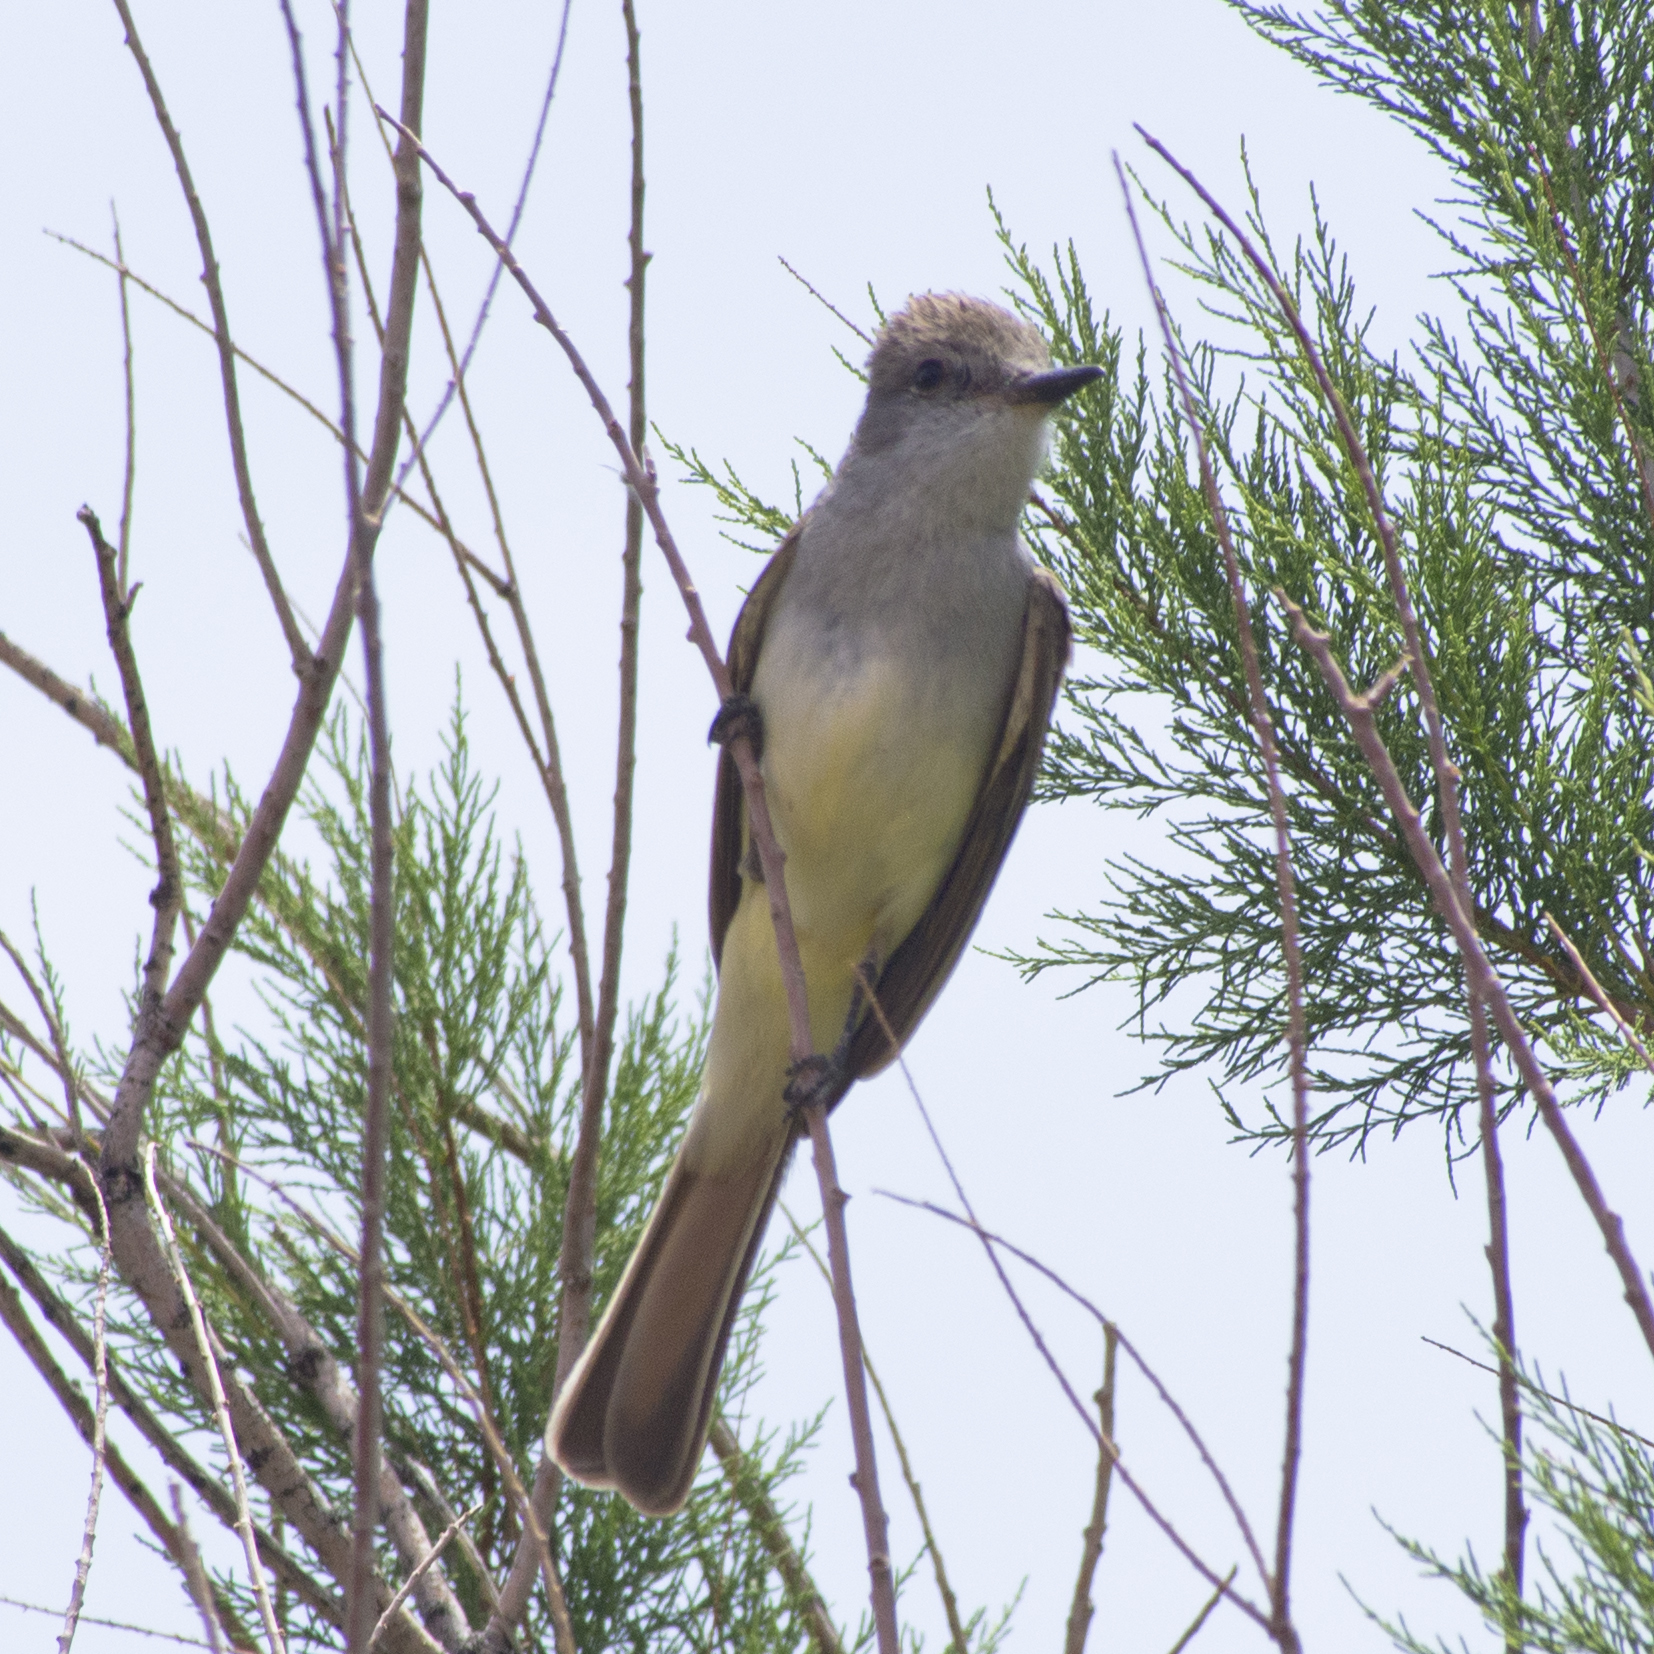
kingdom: Animalia
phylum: Chordata
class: Aves
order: Passeriformes
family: Tyrannidae
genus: Myiarchus
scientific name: Myiarchus cinerascens
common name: Ash-throated flycatcher
